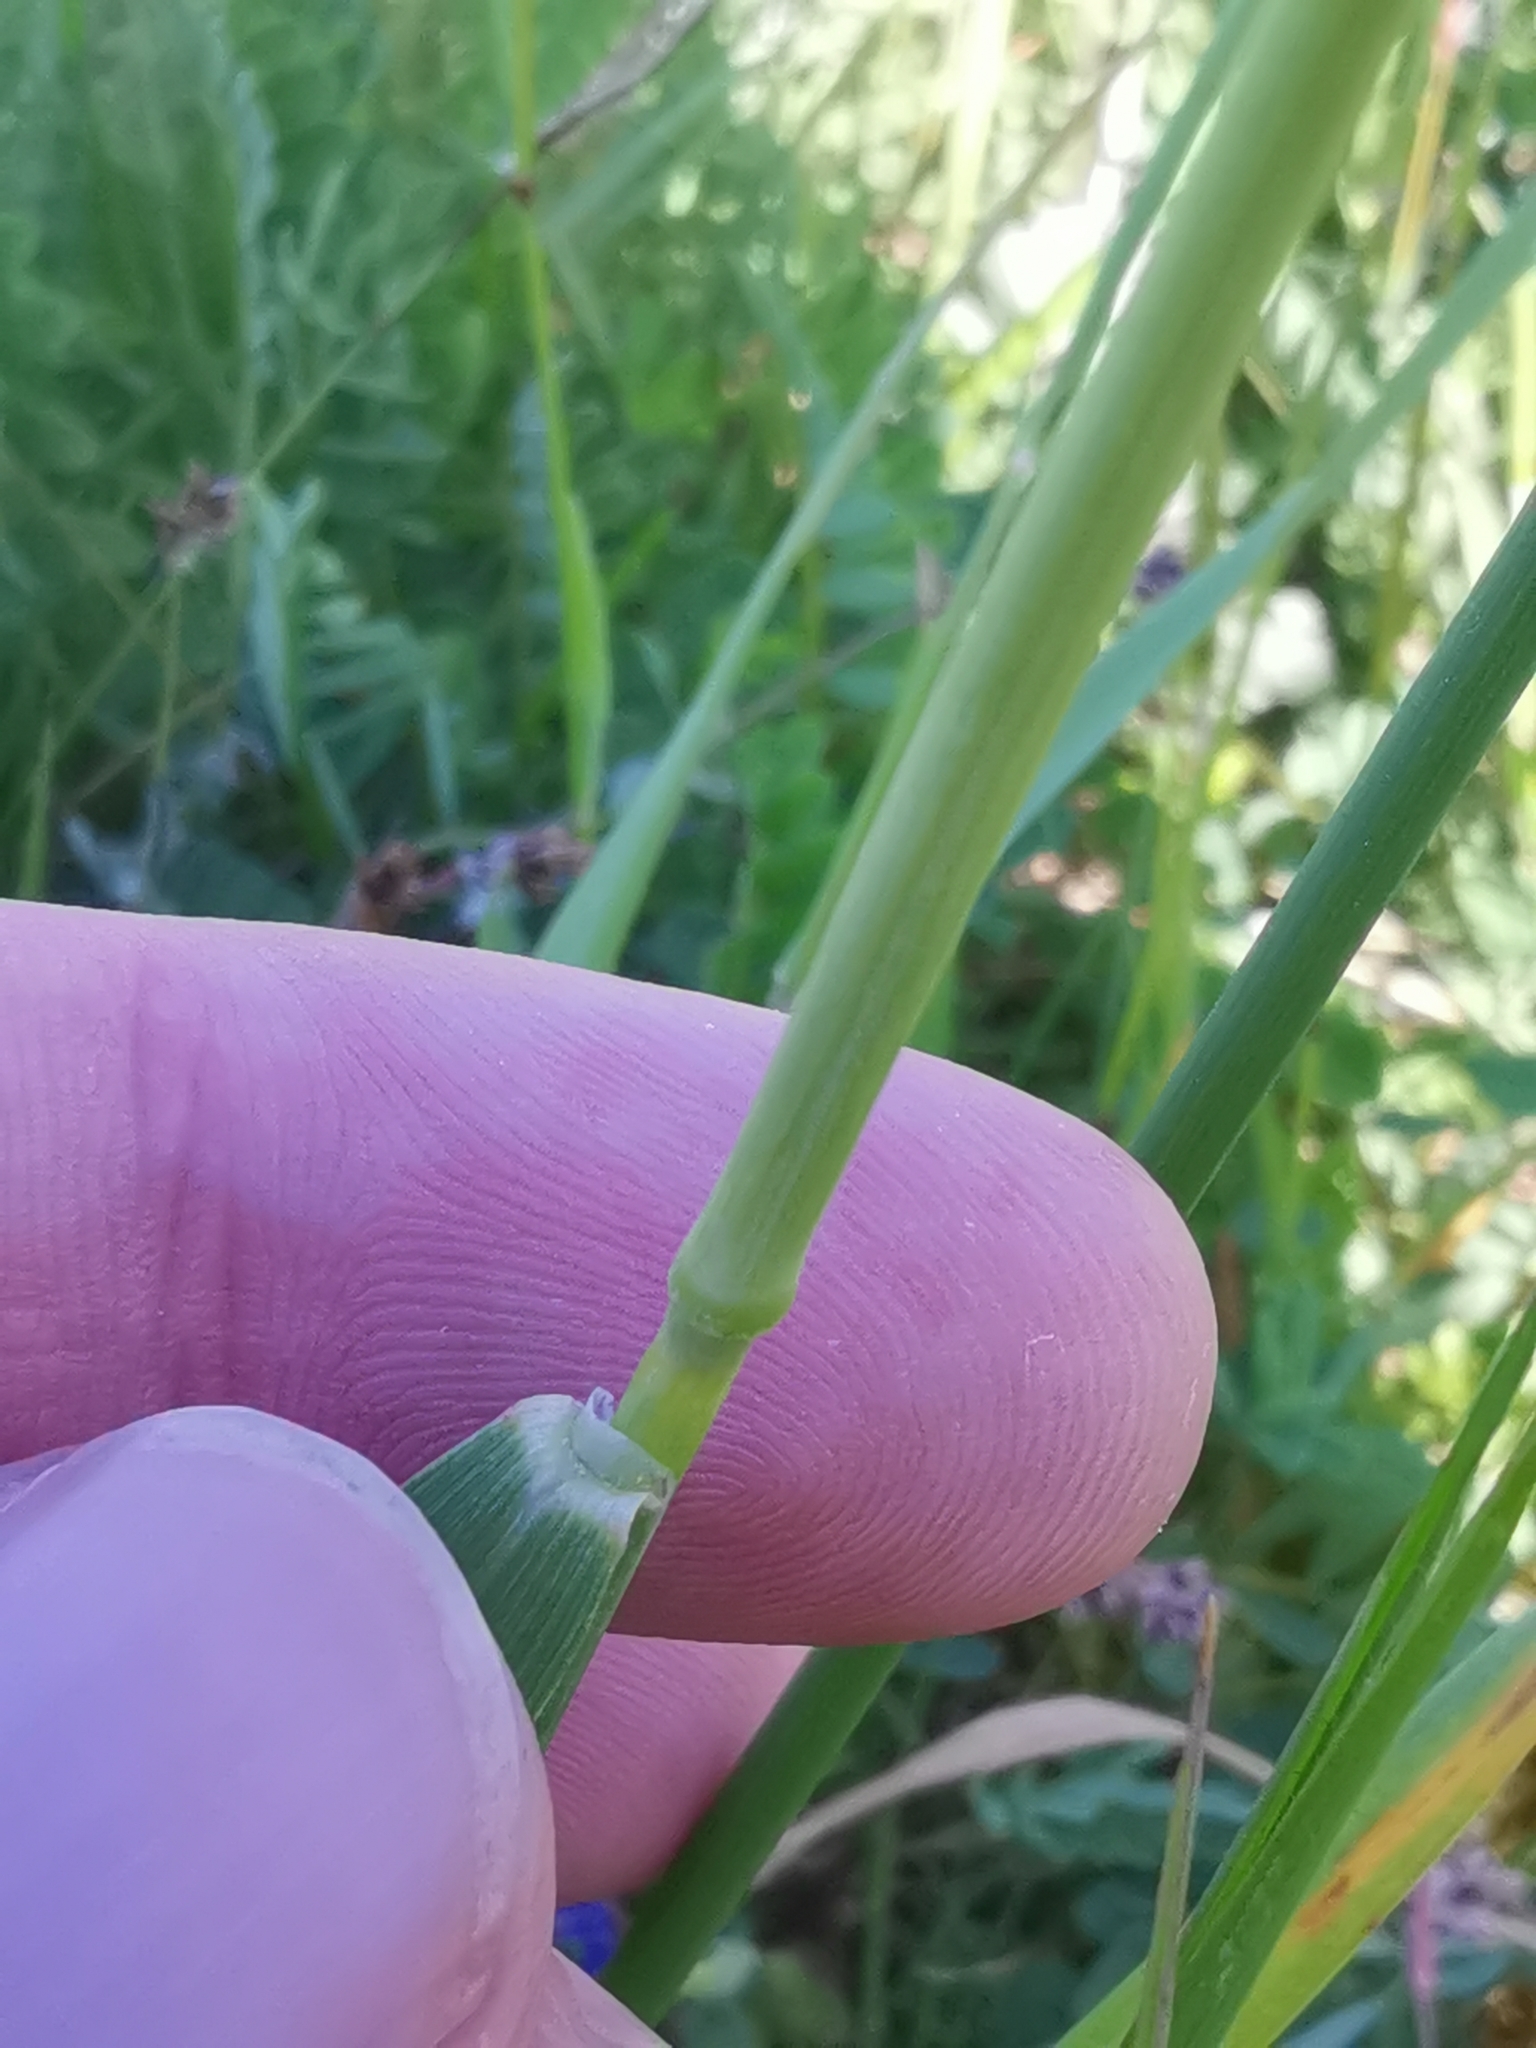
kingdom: Plantae
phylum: Tracheophyta
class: Liliopsida
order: Poales
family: Poaceae
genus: Arrhenatherum
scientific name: Arrhenatherum elatius
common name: Tall oatgrass
